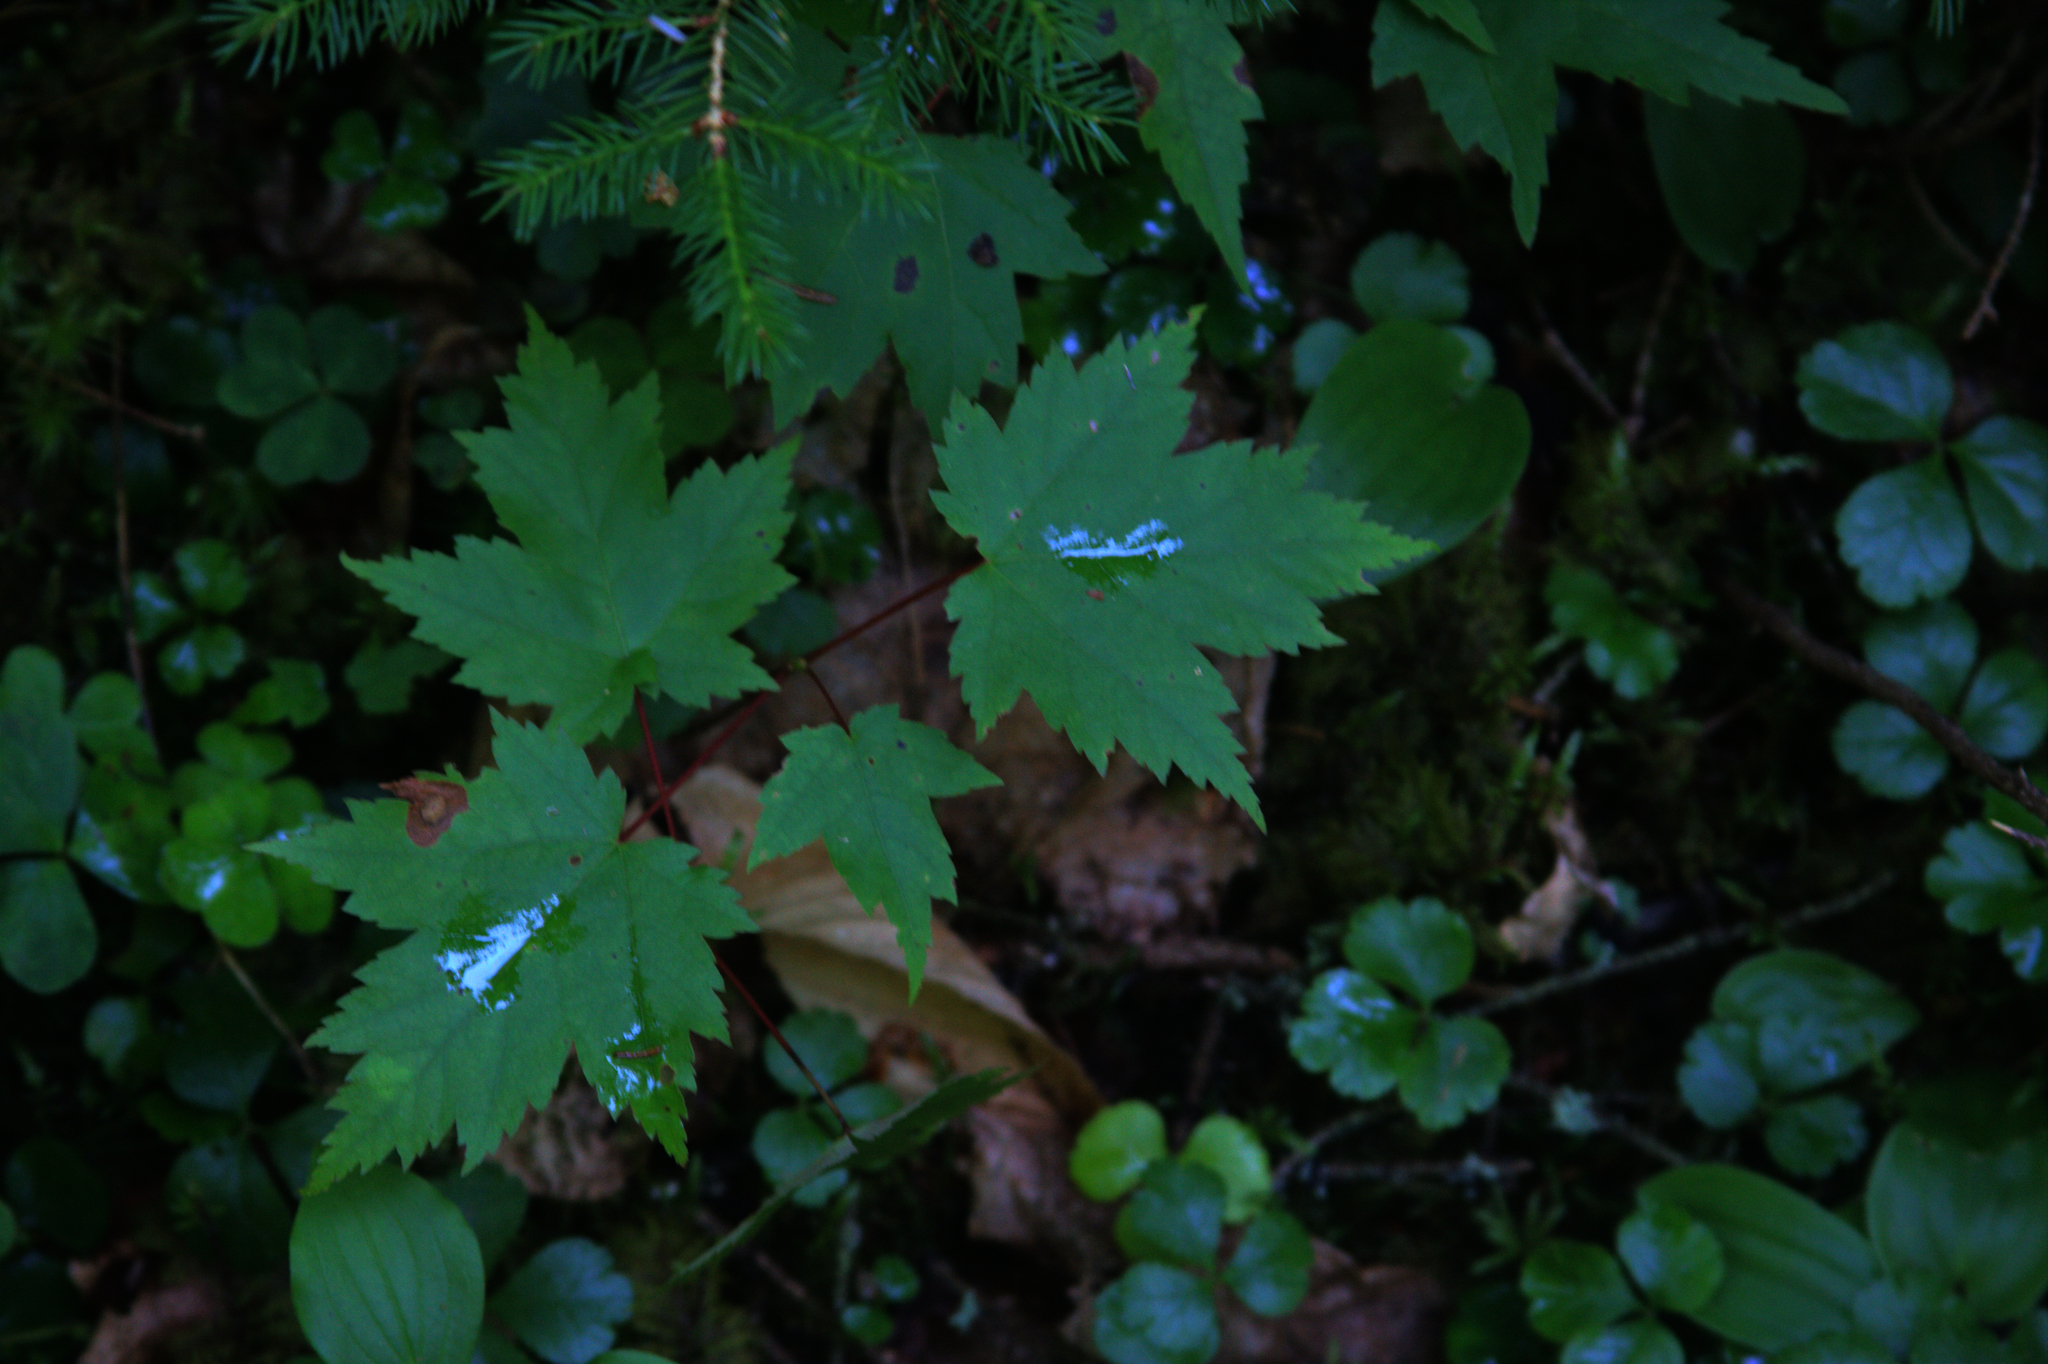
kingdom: Plantae
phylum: Tracheophyta
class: Magnoliopsida
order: Sapindales
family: Sapindaceae
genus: Acer
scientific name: Acer rubrum
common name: Red maple
